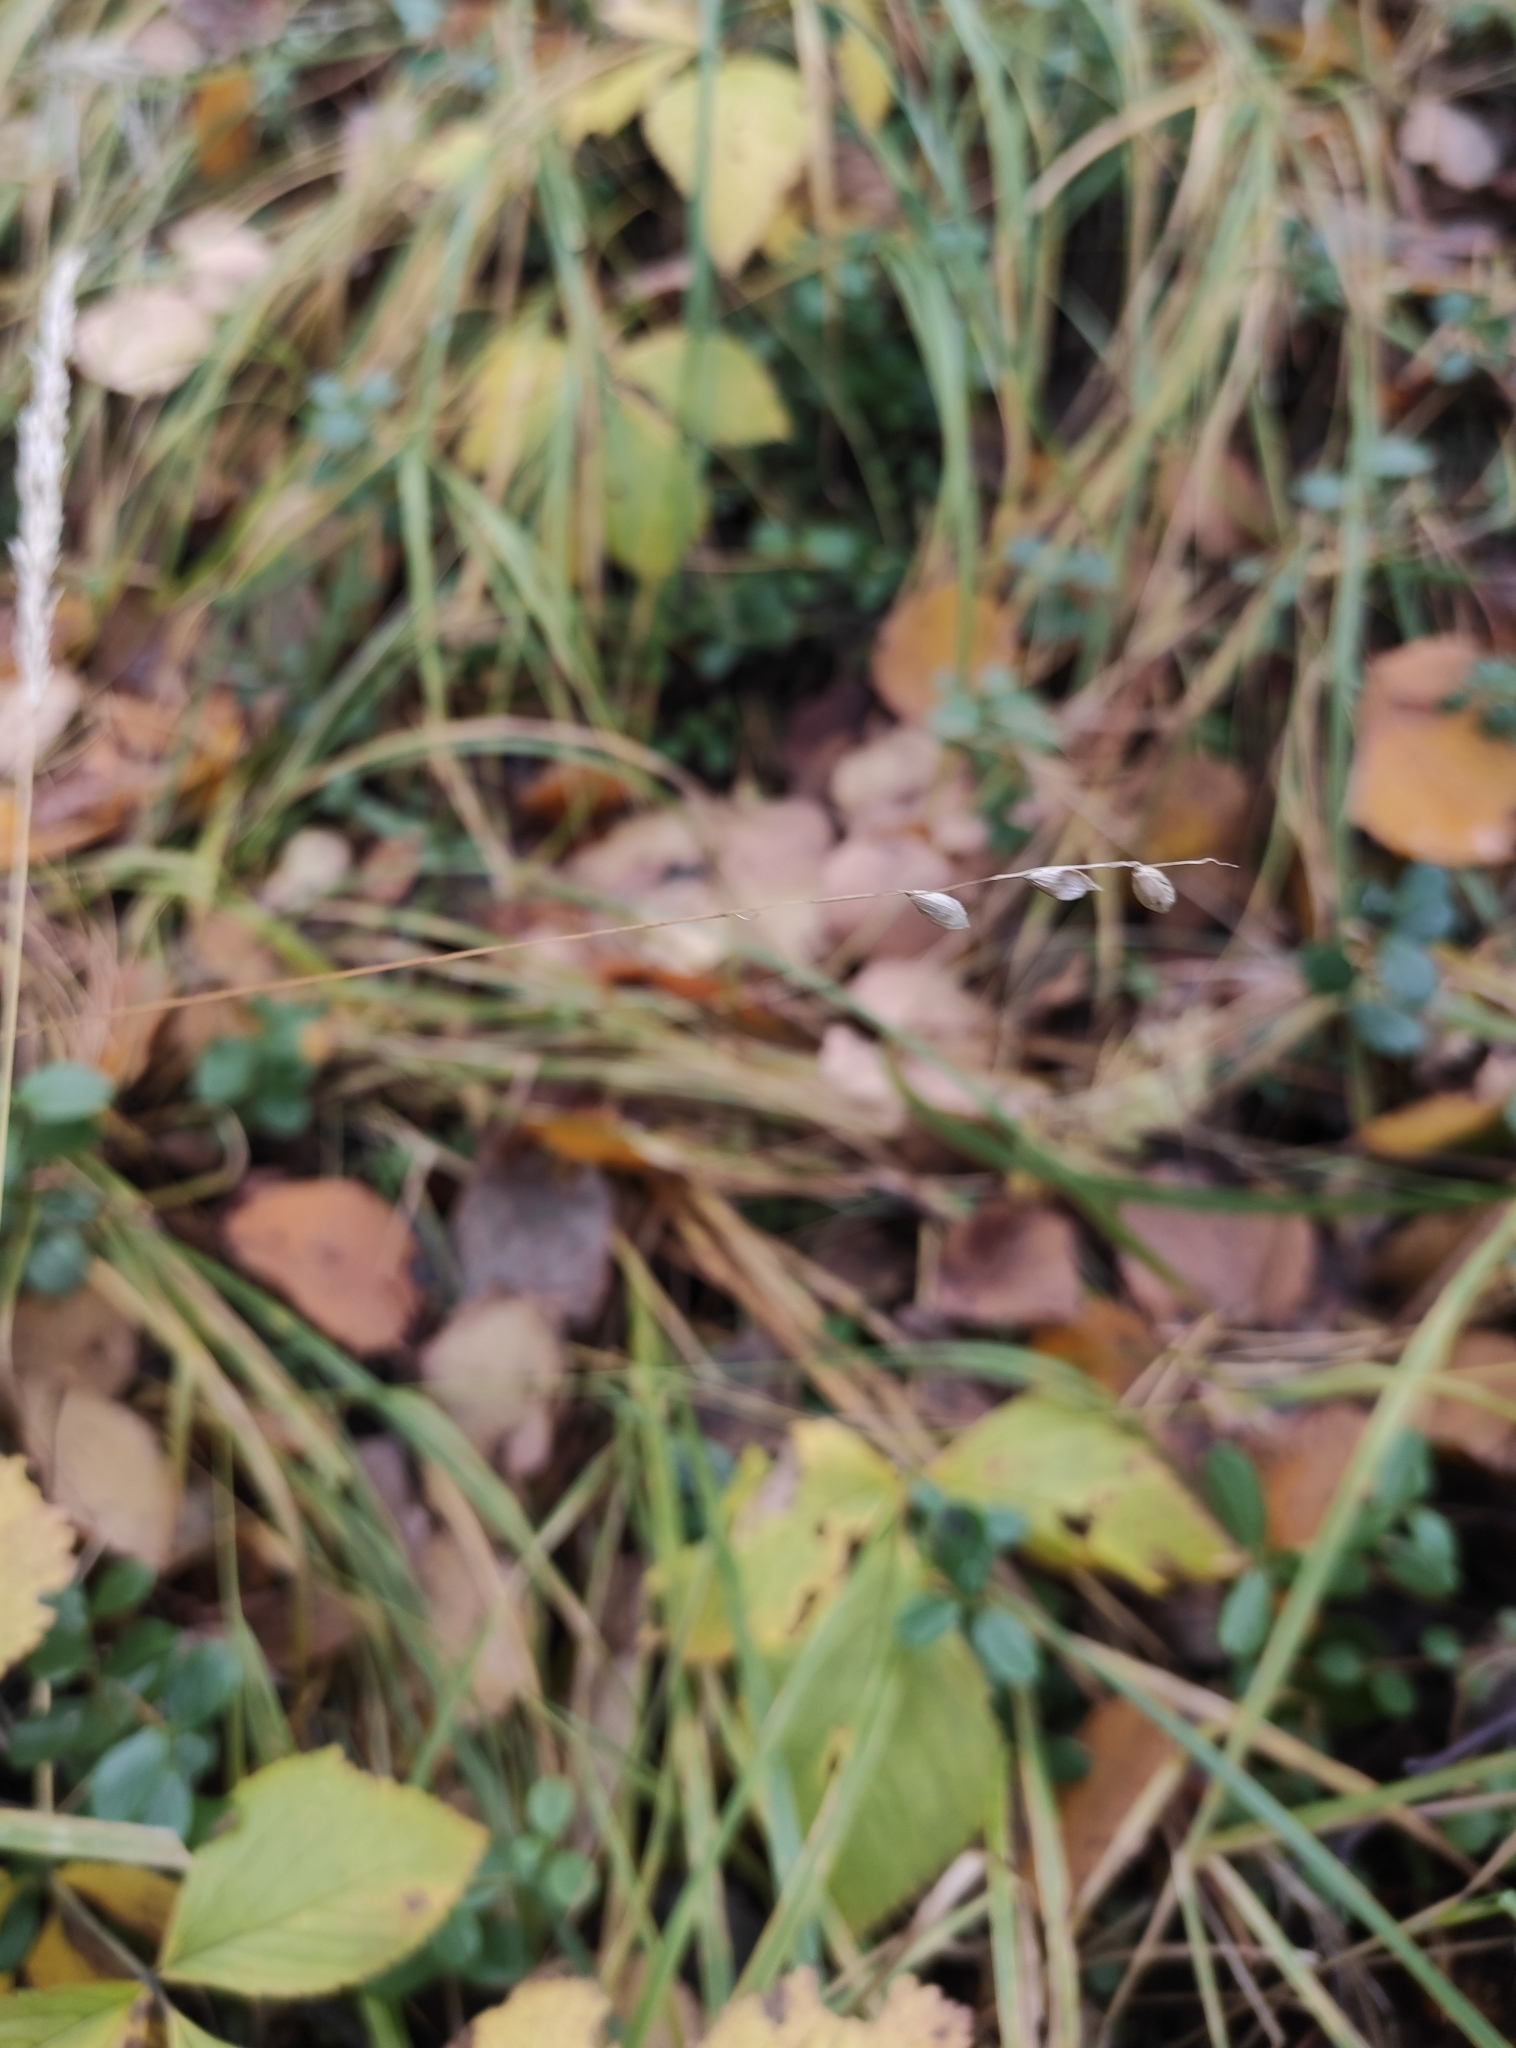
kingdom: Plantae
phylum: Tracheophyta
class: Liliopsida
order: Poales
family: Poaceae
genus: Melica
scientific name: Melica nutans
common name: Mountain melick
